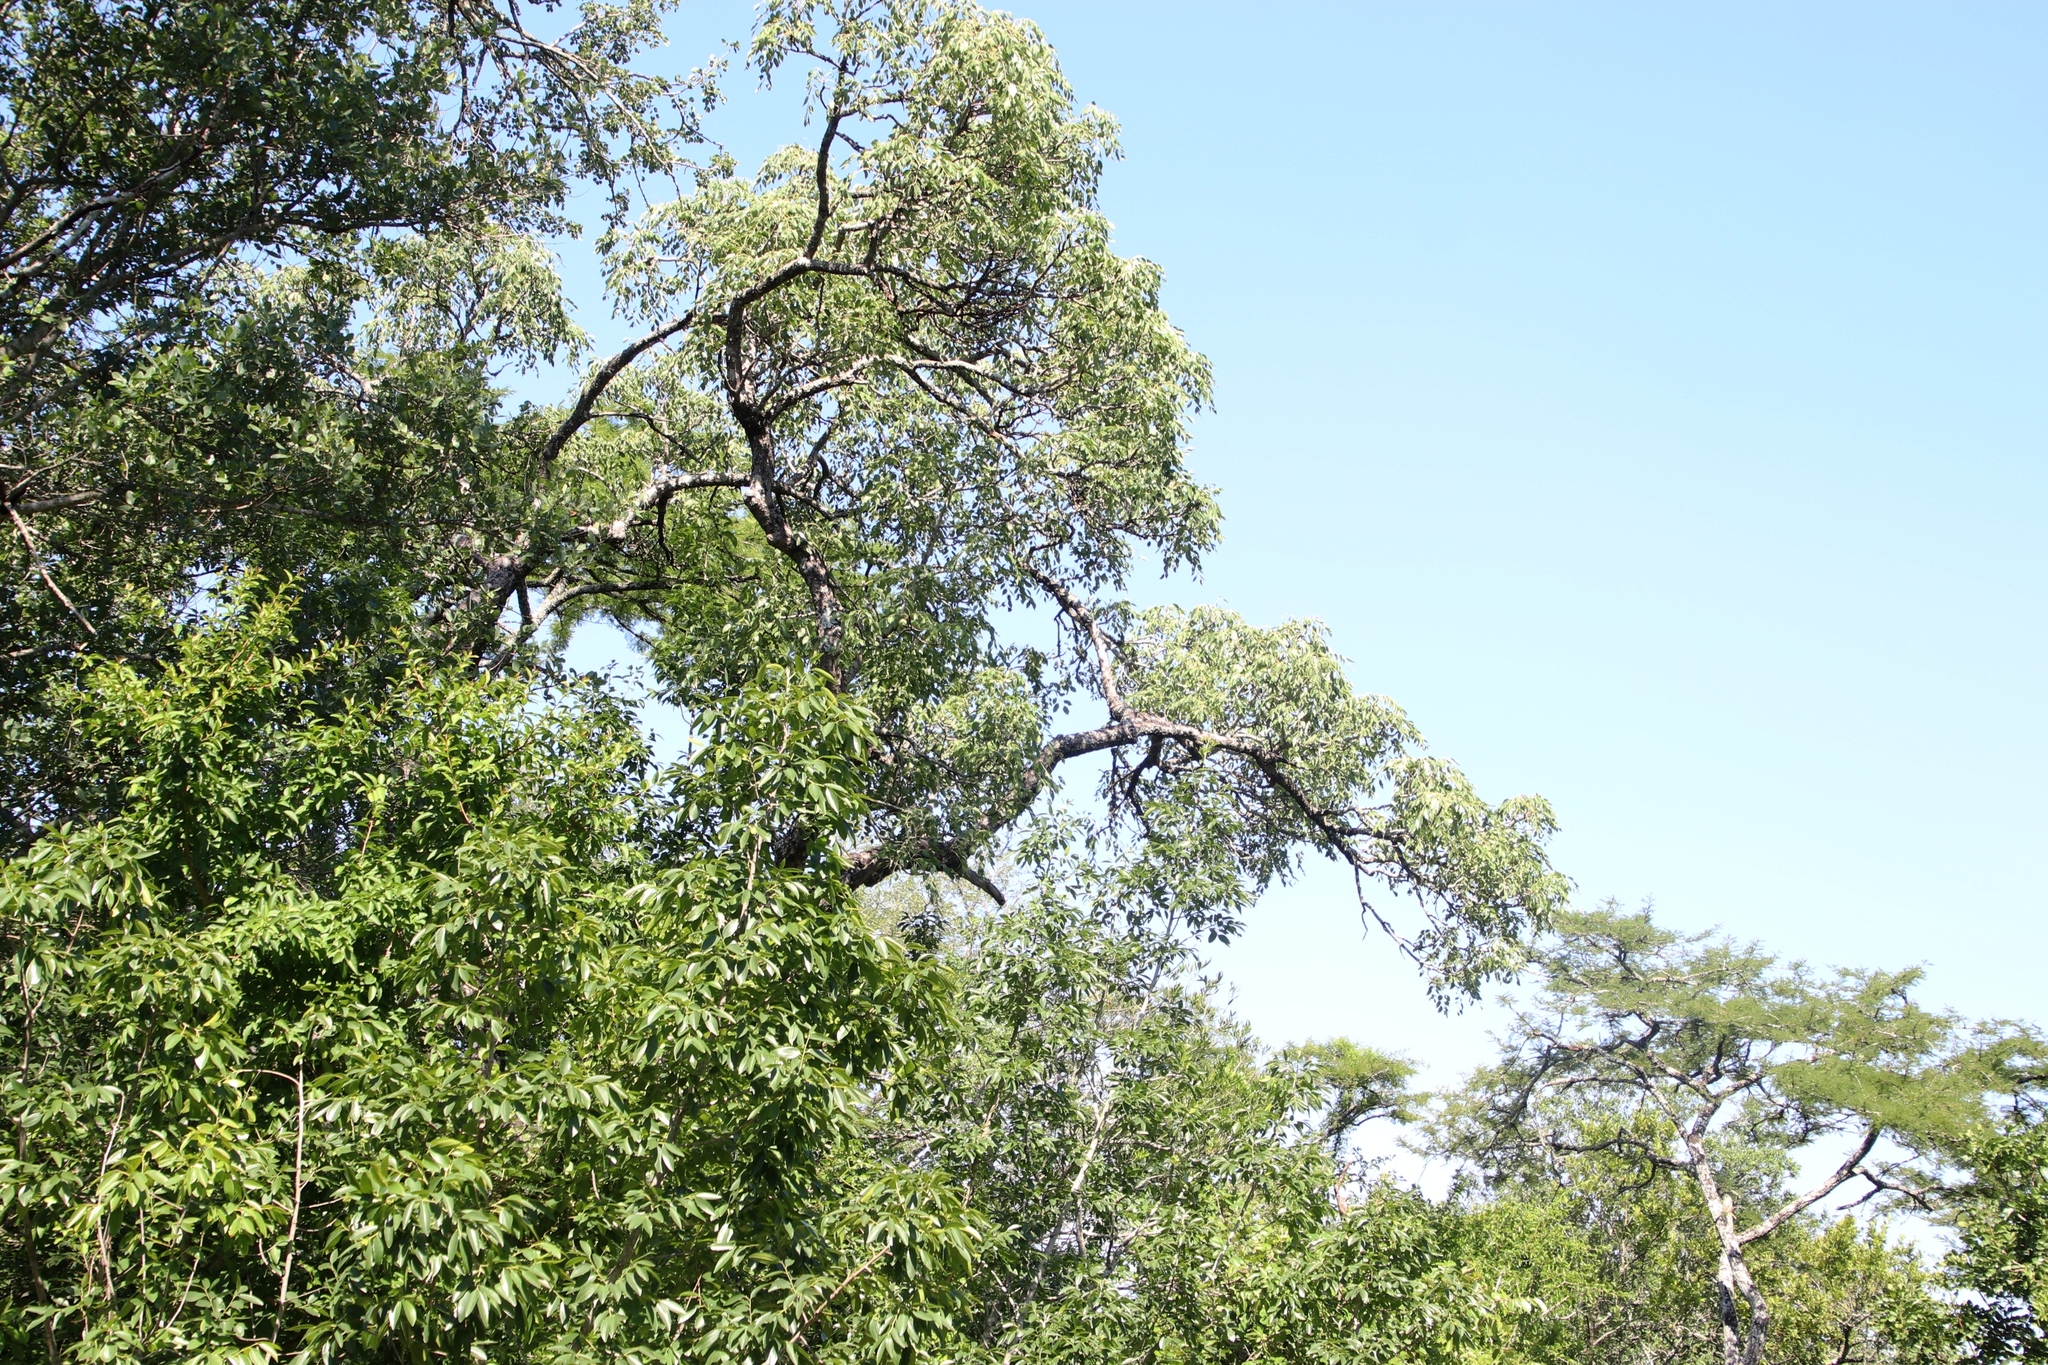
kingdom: Plantae
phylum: Tracheophyta
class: Magnoliopsida
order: Sapindales
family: Anacardiaceae
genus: Sclerocarya
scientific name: Sclerocarya birrea
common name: Marula
